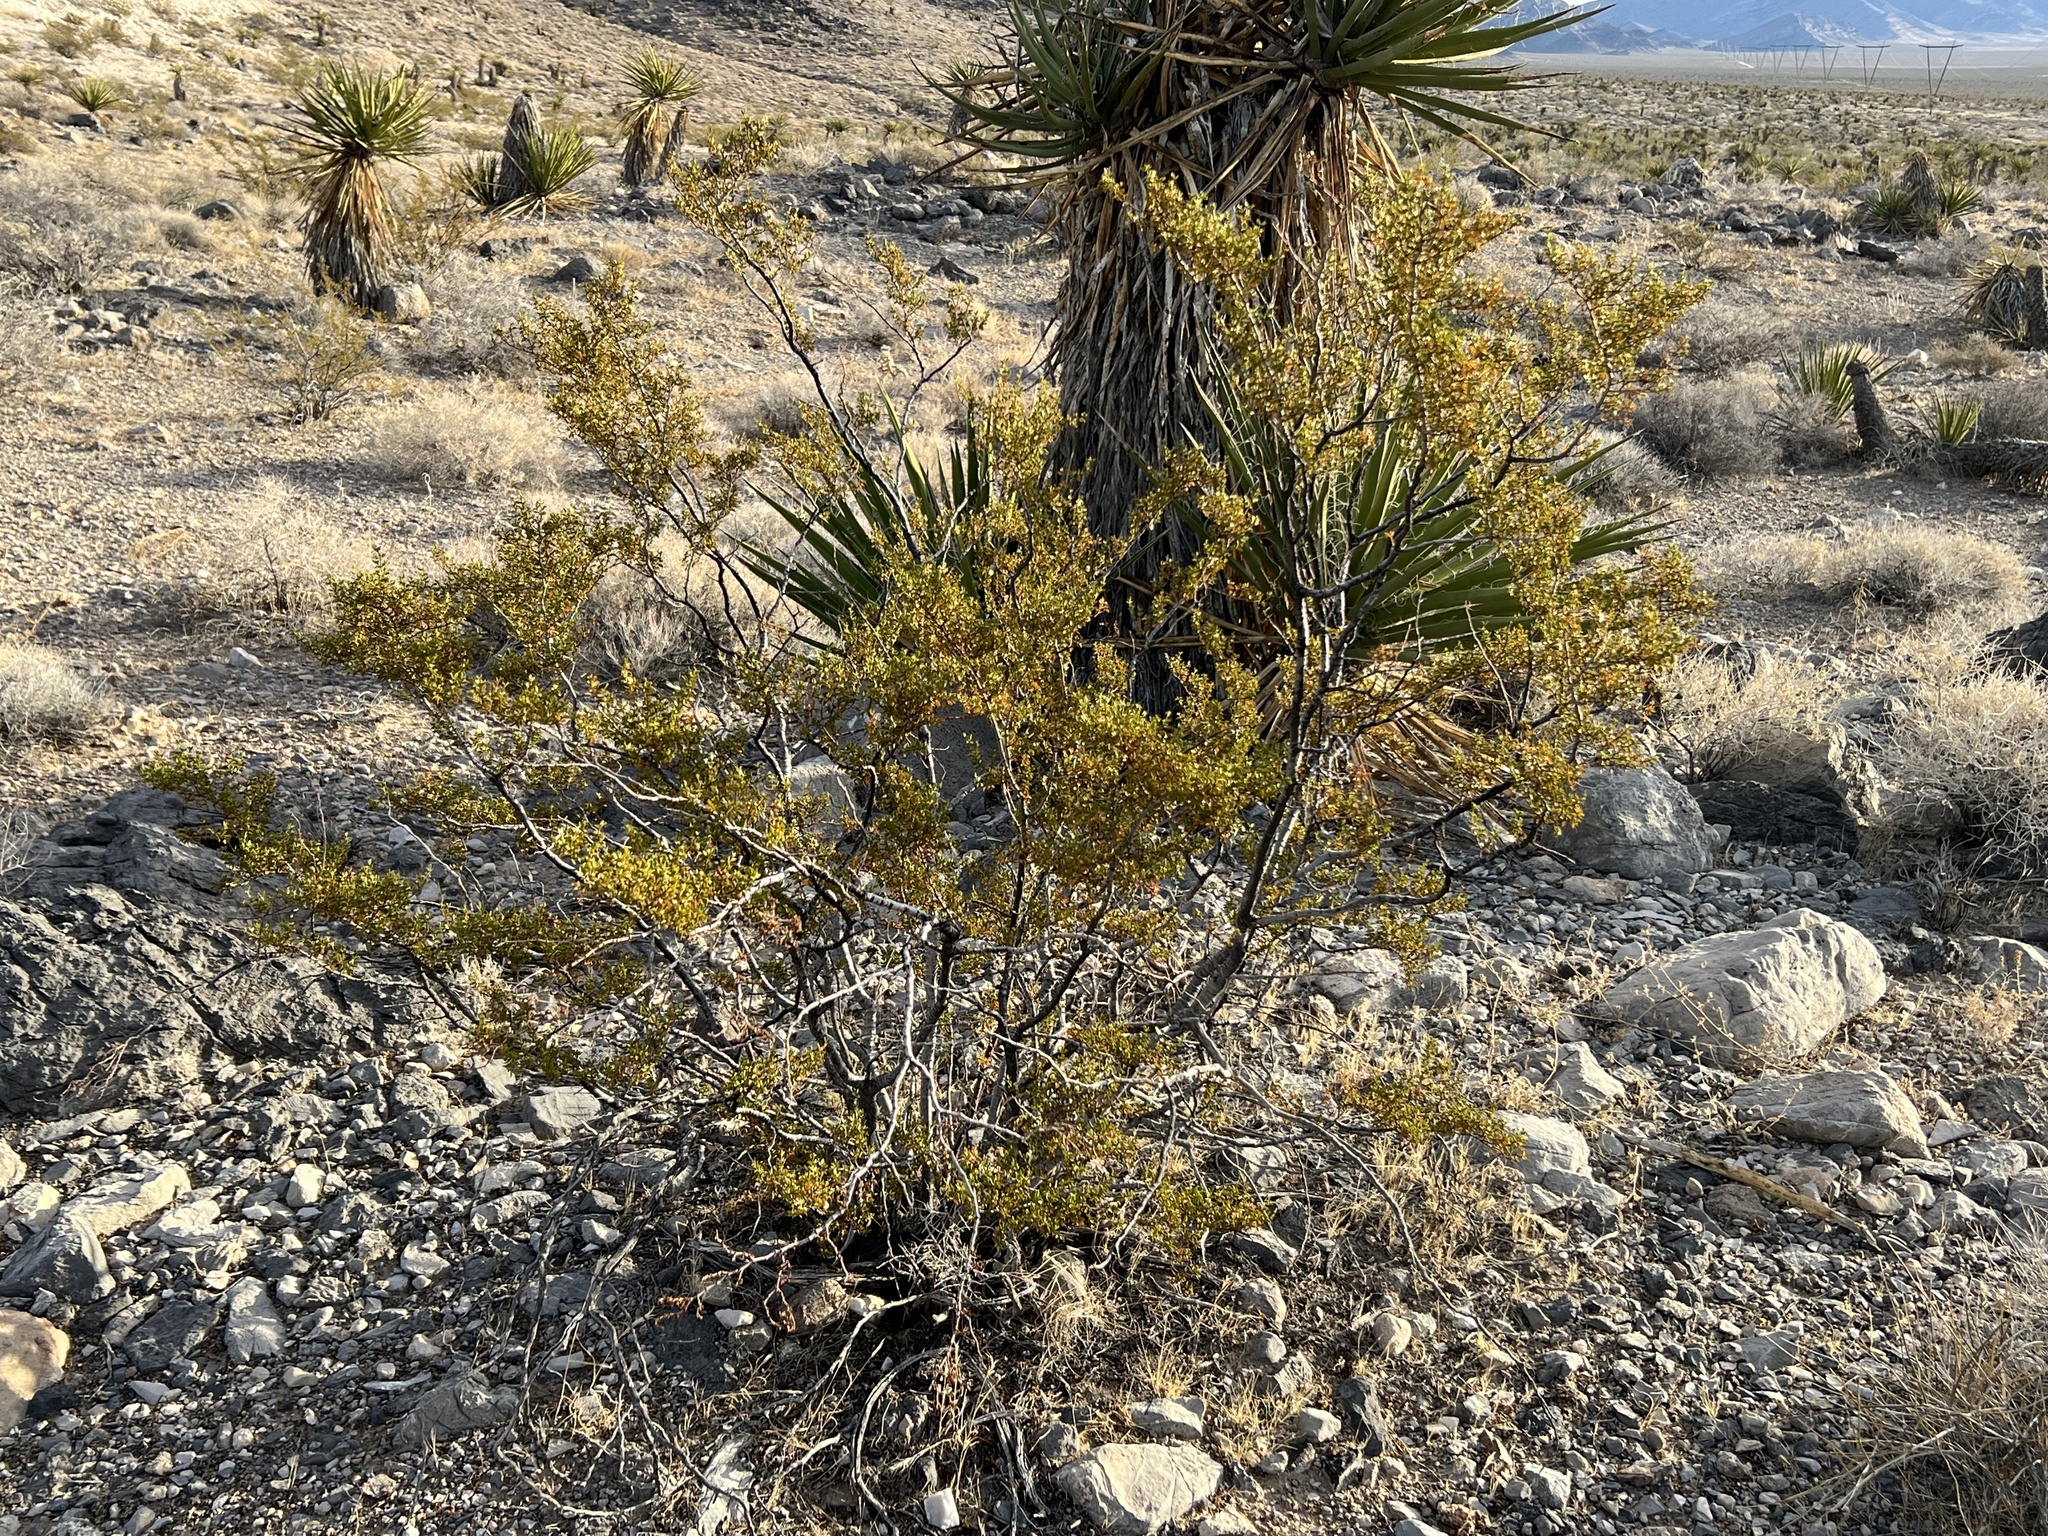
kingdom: Plantae
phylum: Tracheophyta
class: Magnoliopsida
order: Zygophyllales
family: Zygophyllaceae
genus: Larrea
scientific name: Larrea tridentata
